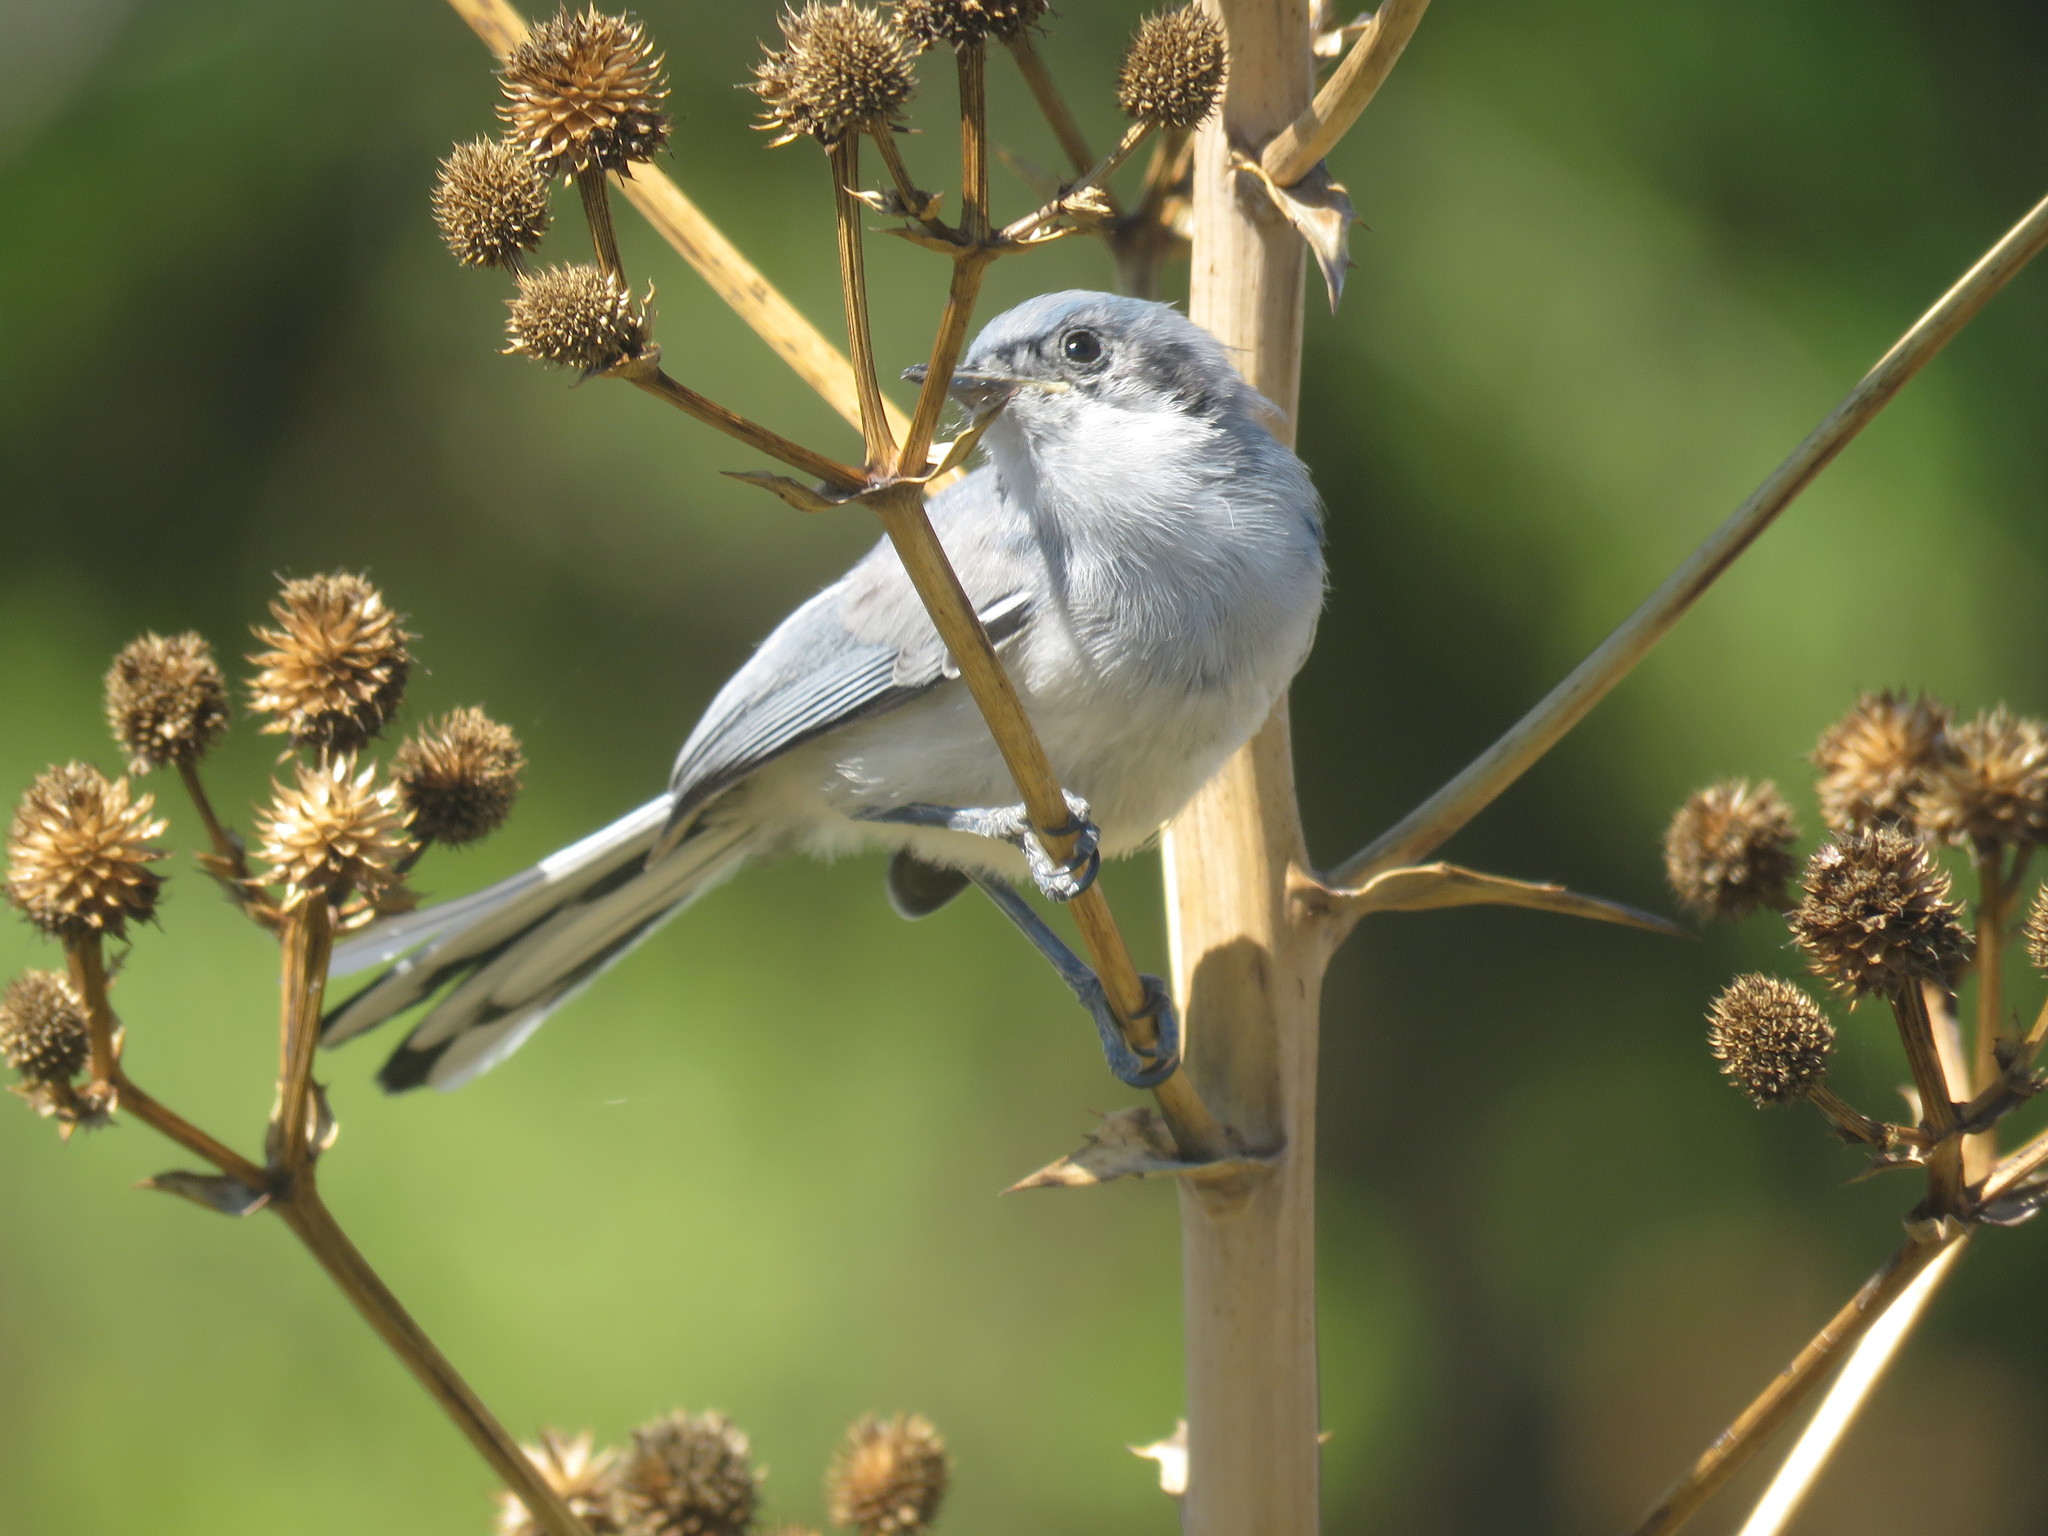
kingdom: Animalia
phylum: Chordata
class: Aves
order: Passeriformes
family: Polioptilidae
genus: Polioptila
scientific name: Polioptila dumicola
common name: Masked gnatcatcher
